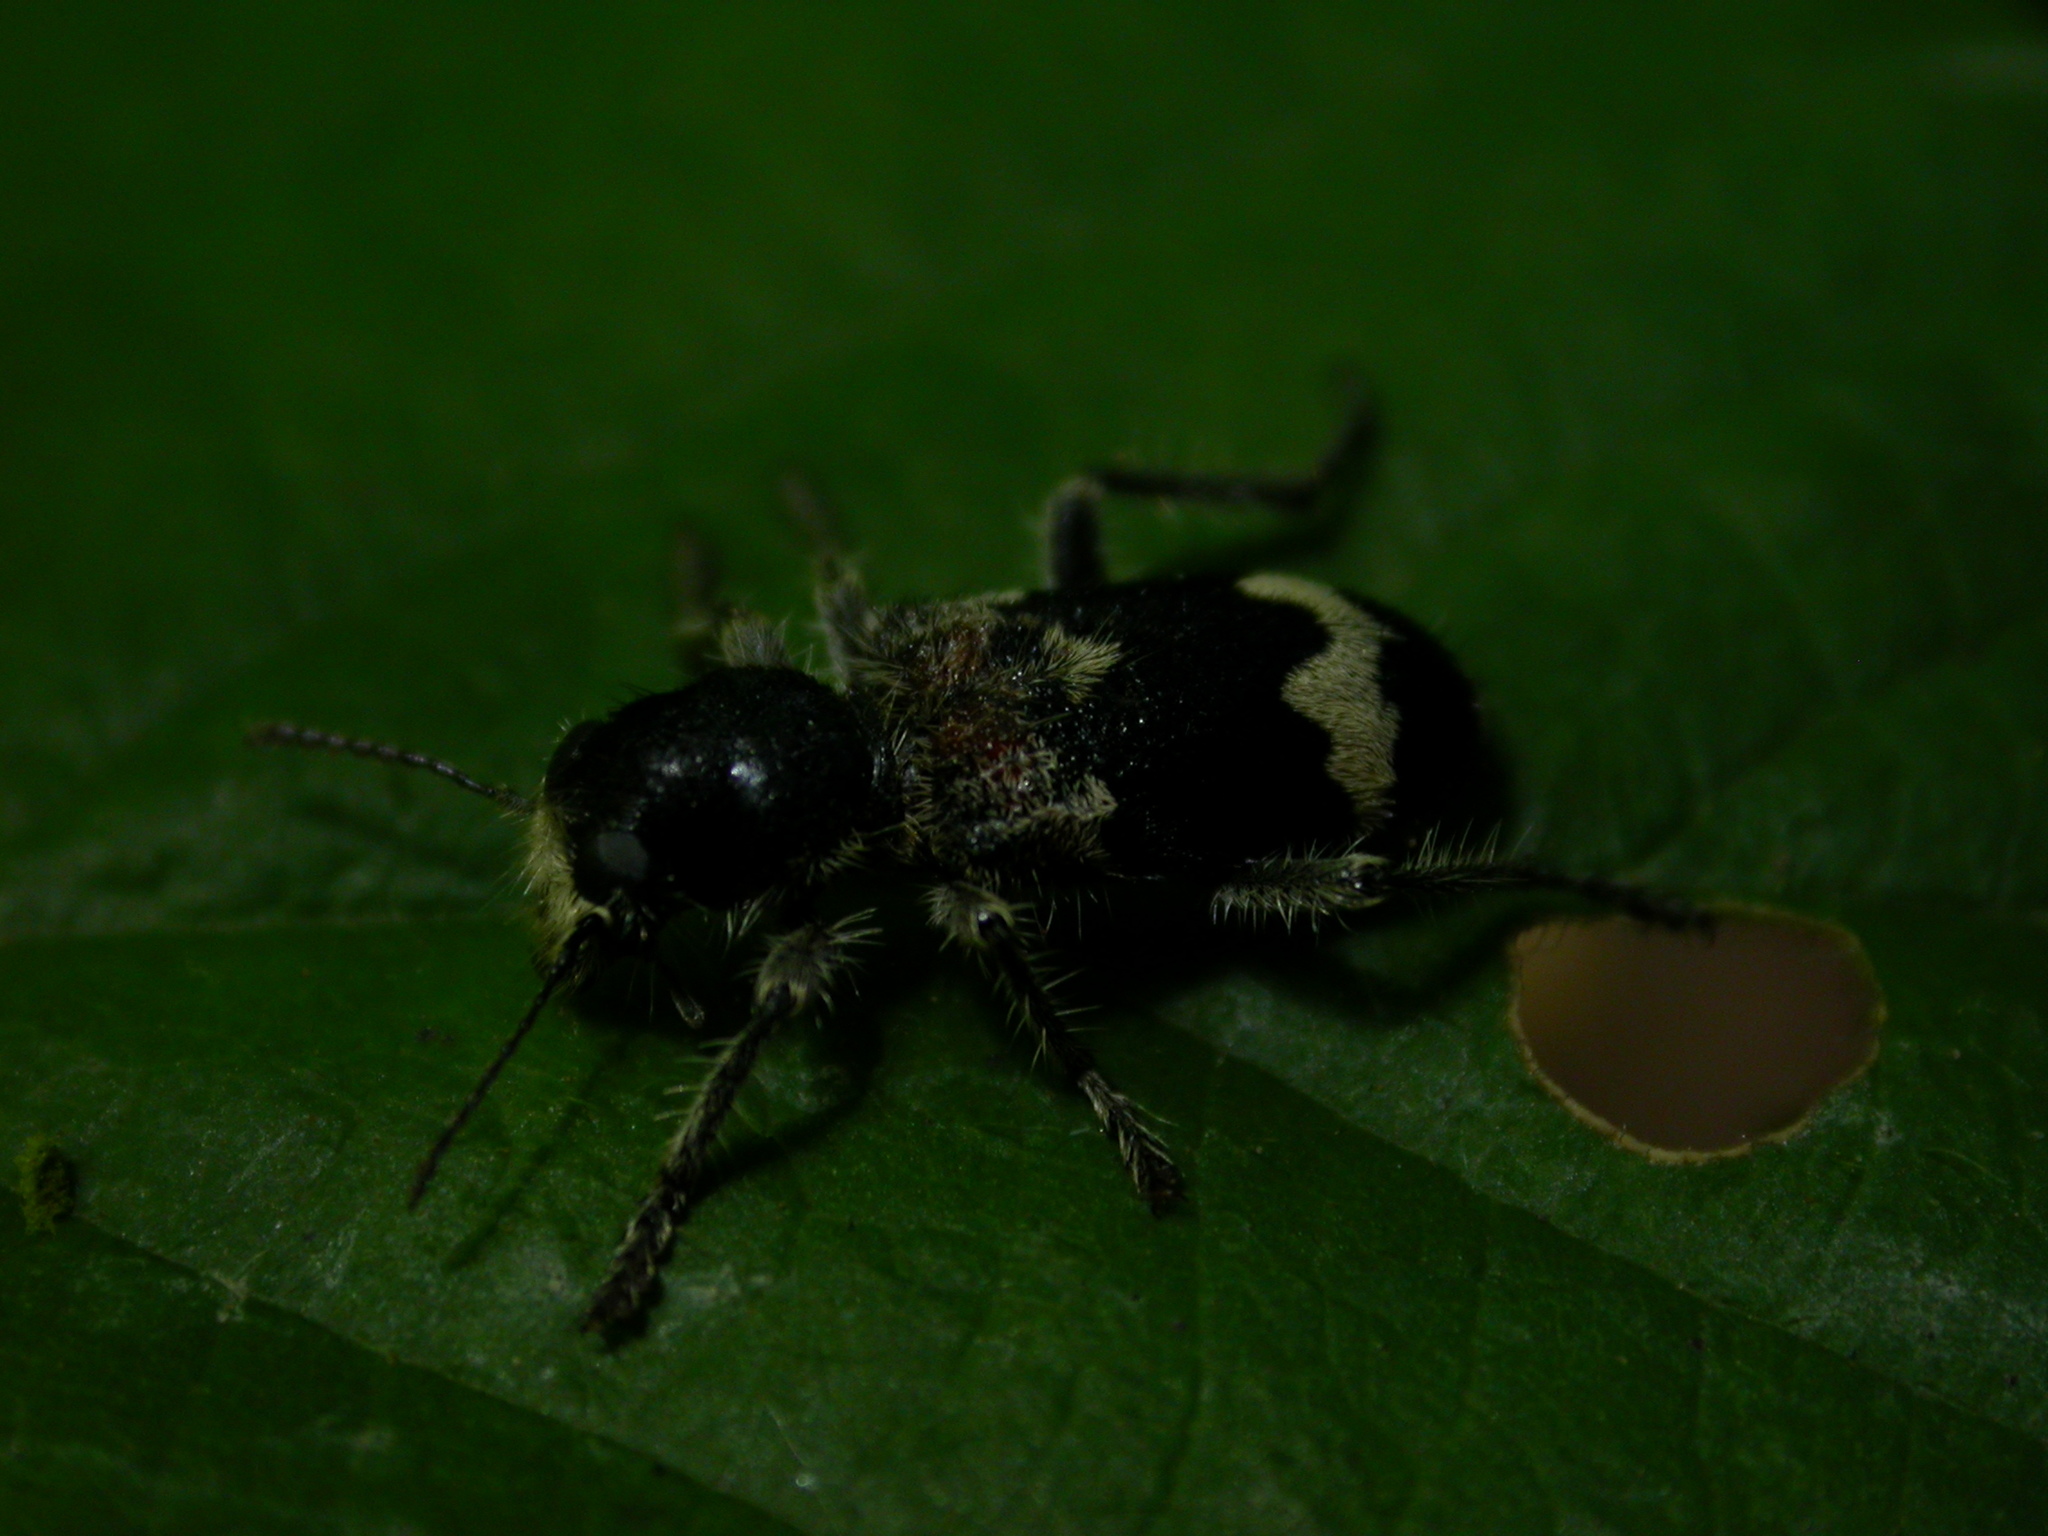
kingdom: Animalia
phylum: Arthropoda
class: Insecta
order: Coleoptera
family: Cleridae
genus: Clerus
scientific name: Clerus mutillarius
